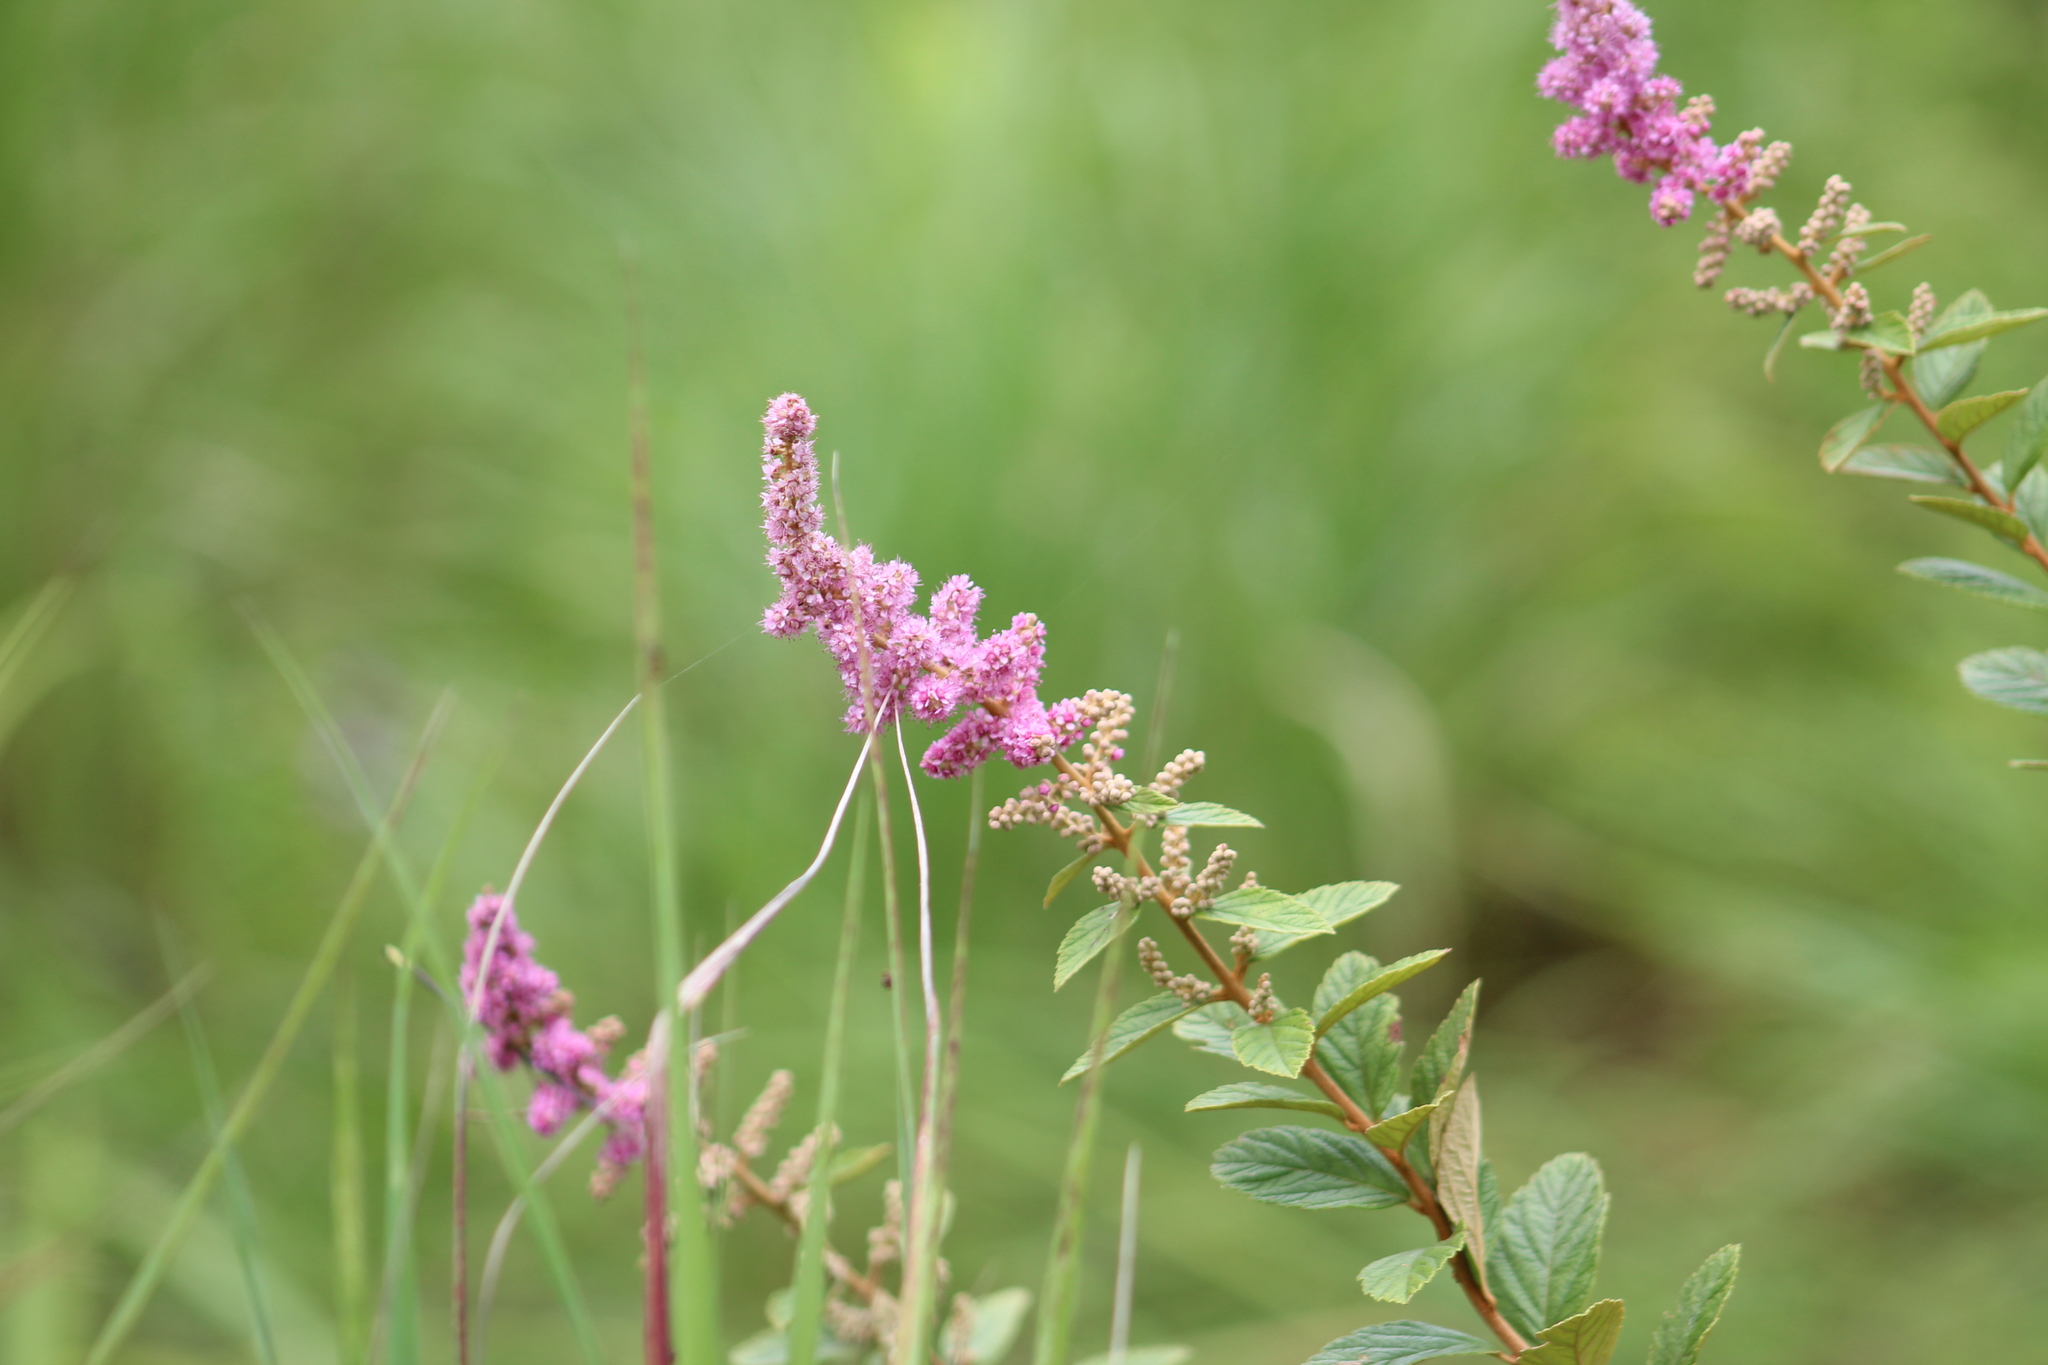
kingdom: Plantae
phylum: Tracheophyta
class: Magnoliopsida
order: Rosales
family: Rosaceae
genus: Spiraea
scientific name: Spiraea tomentosa
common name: Hardhack
